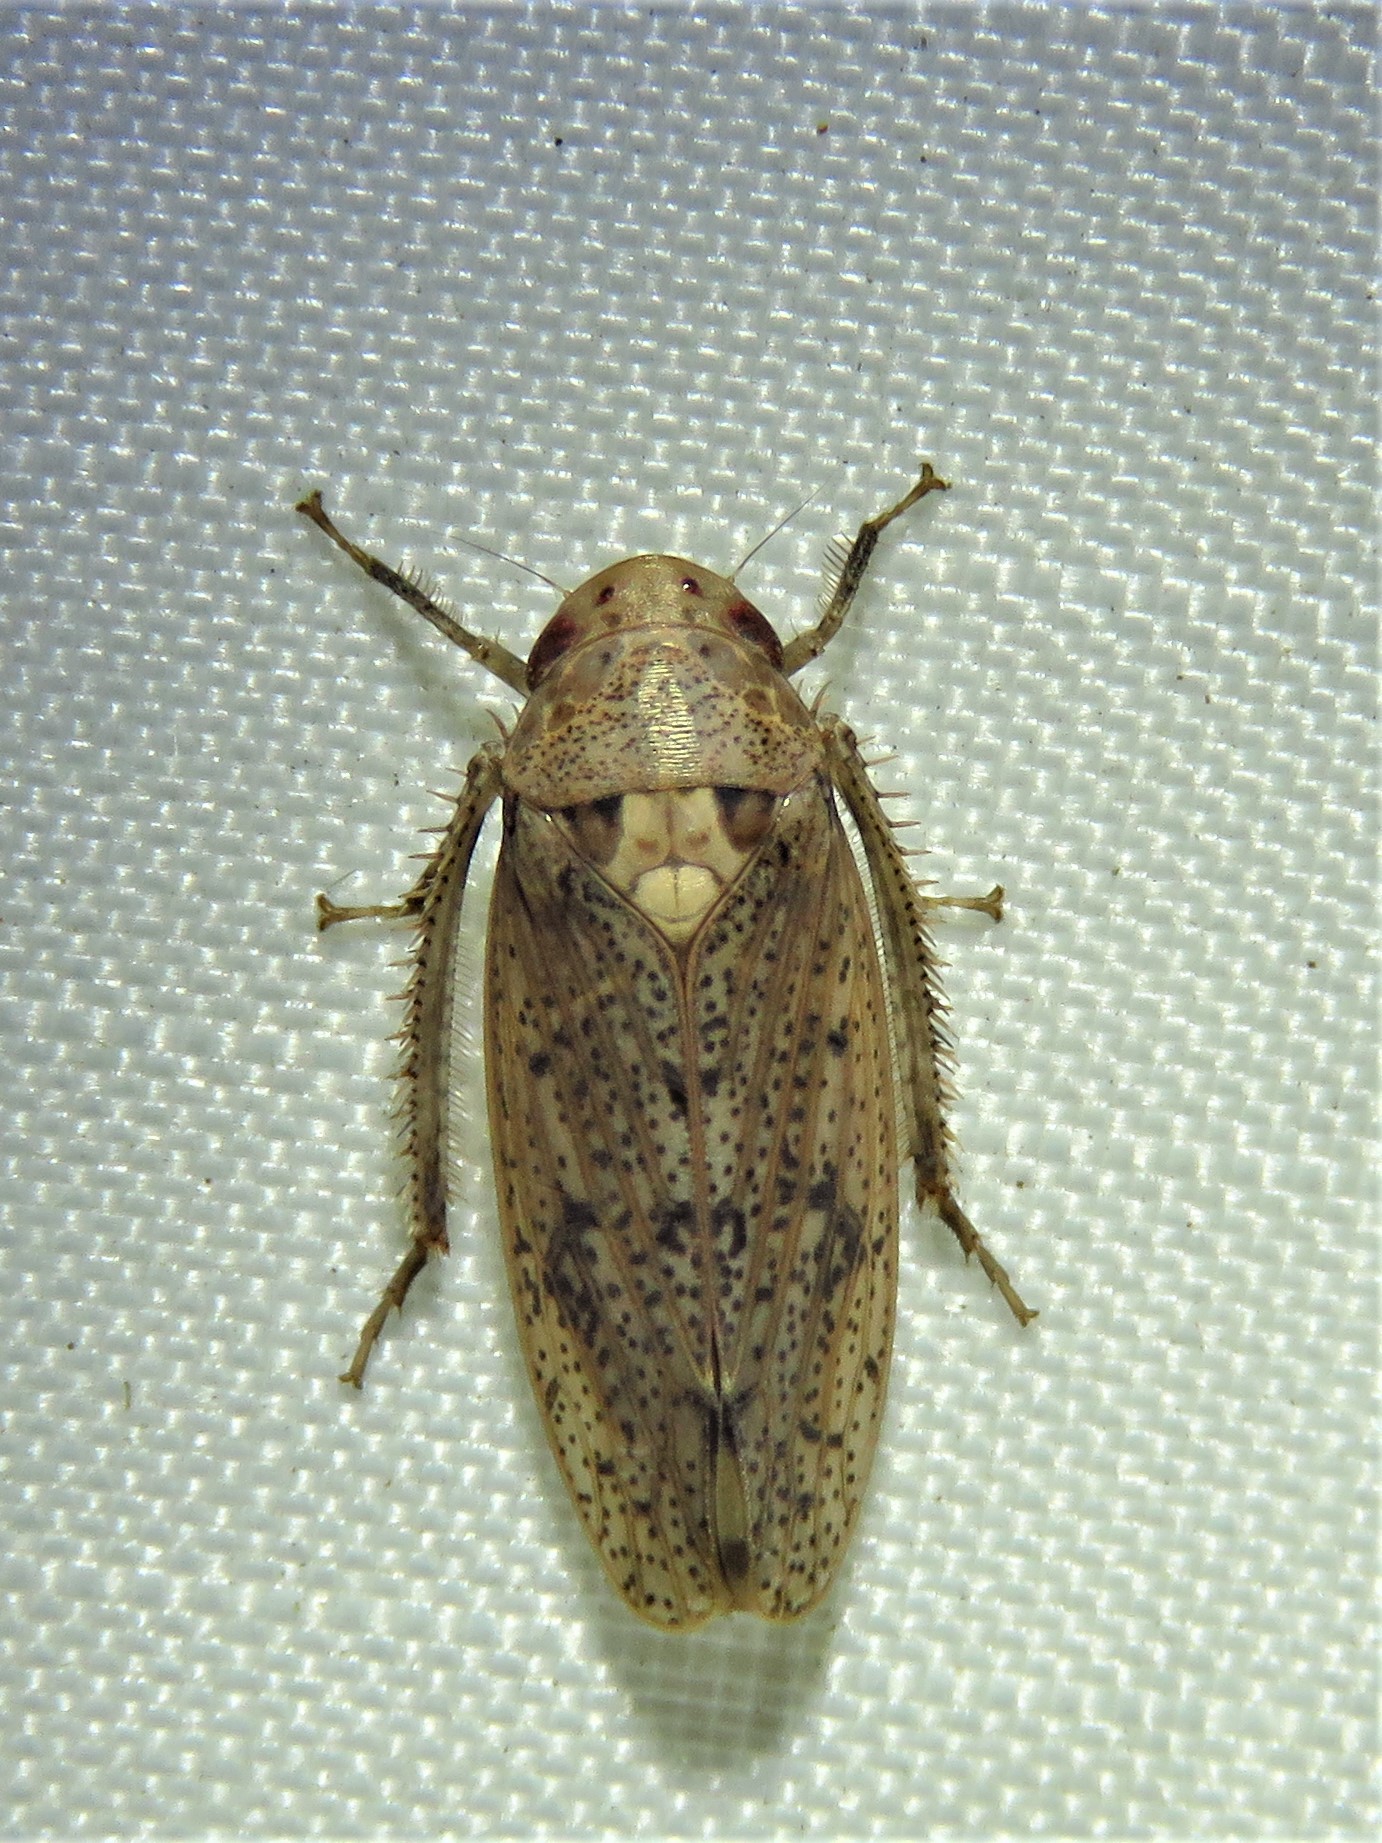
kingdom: Animalia
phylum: Arthropoda
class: Insecta
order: Hemiptera
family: Cicadellidae
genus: Ponana
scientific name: Ponana puncticollis
